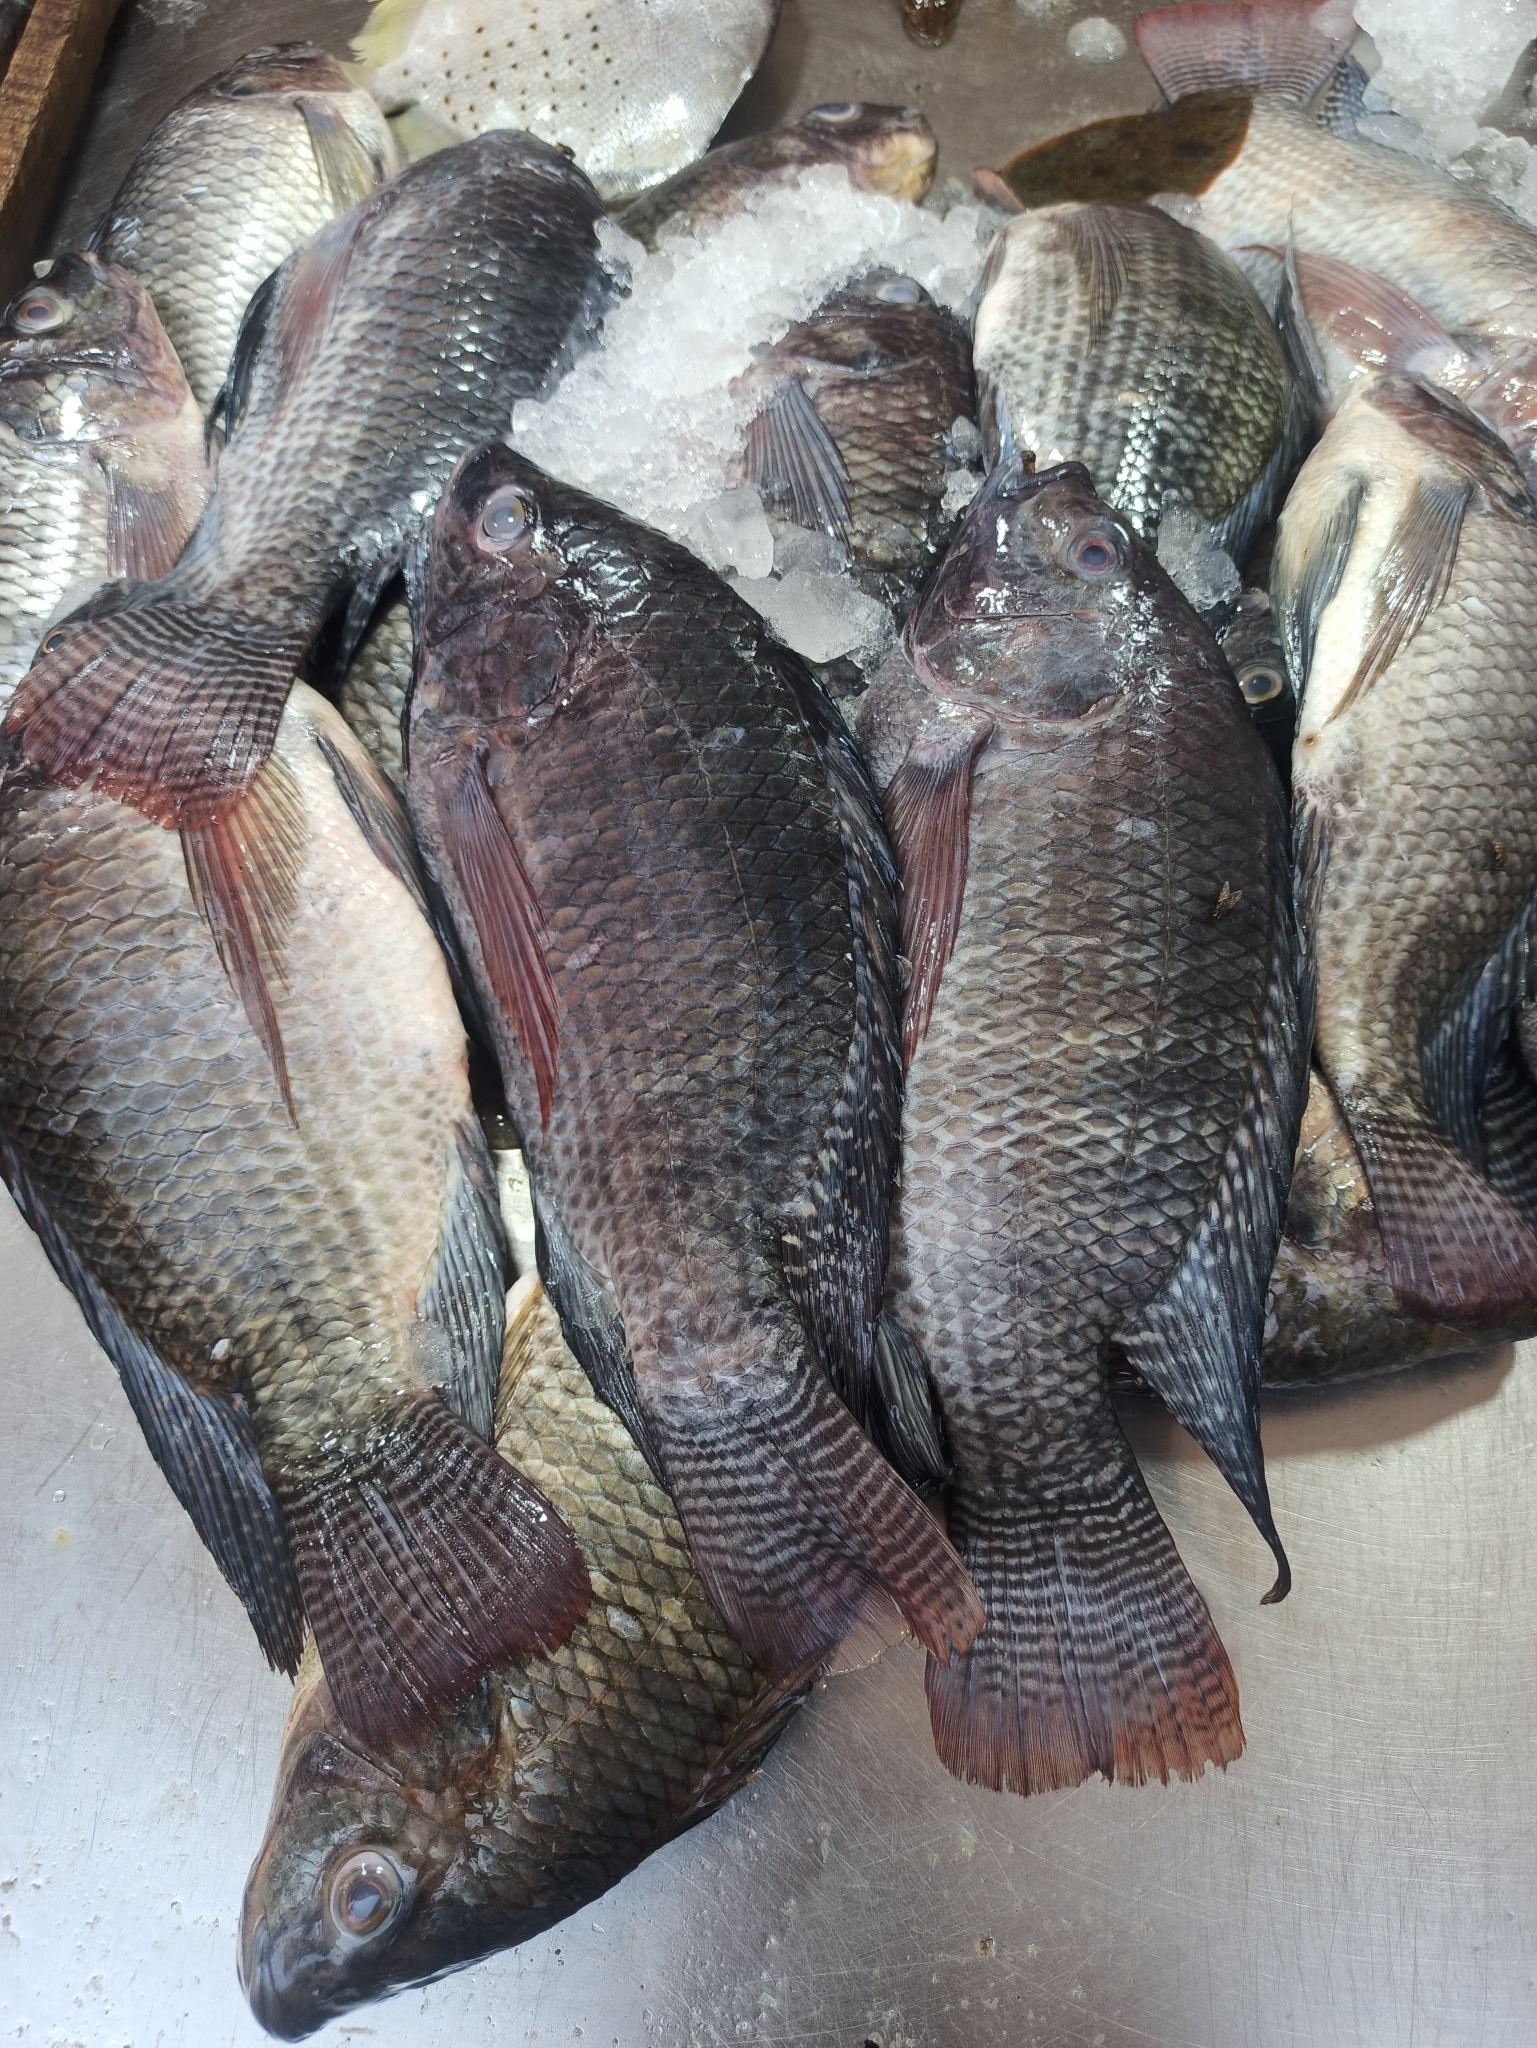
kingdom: Animalia
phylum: Chordata
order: Perciformes
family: Cichlidae
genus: Oreochromis
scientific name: Oreochromis niloticus
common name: Nile tilapia
